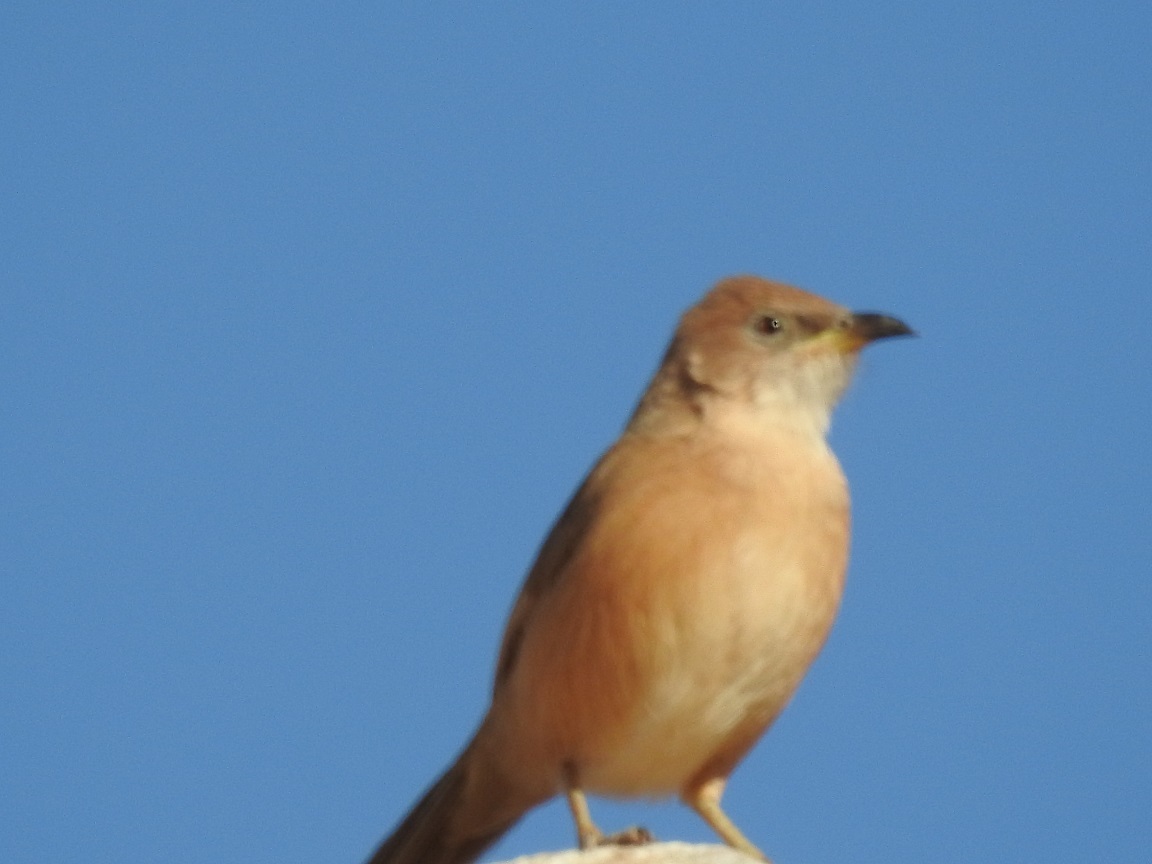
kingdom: Animalia
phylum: Chordata
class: Aves
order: Passeriformes
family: Leiothrichidae
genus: Turdoides
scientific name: Turdoides fulva
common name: Fulvous babbler
